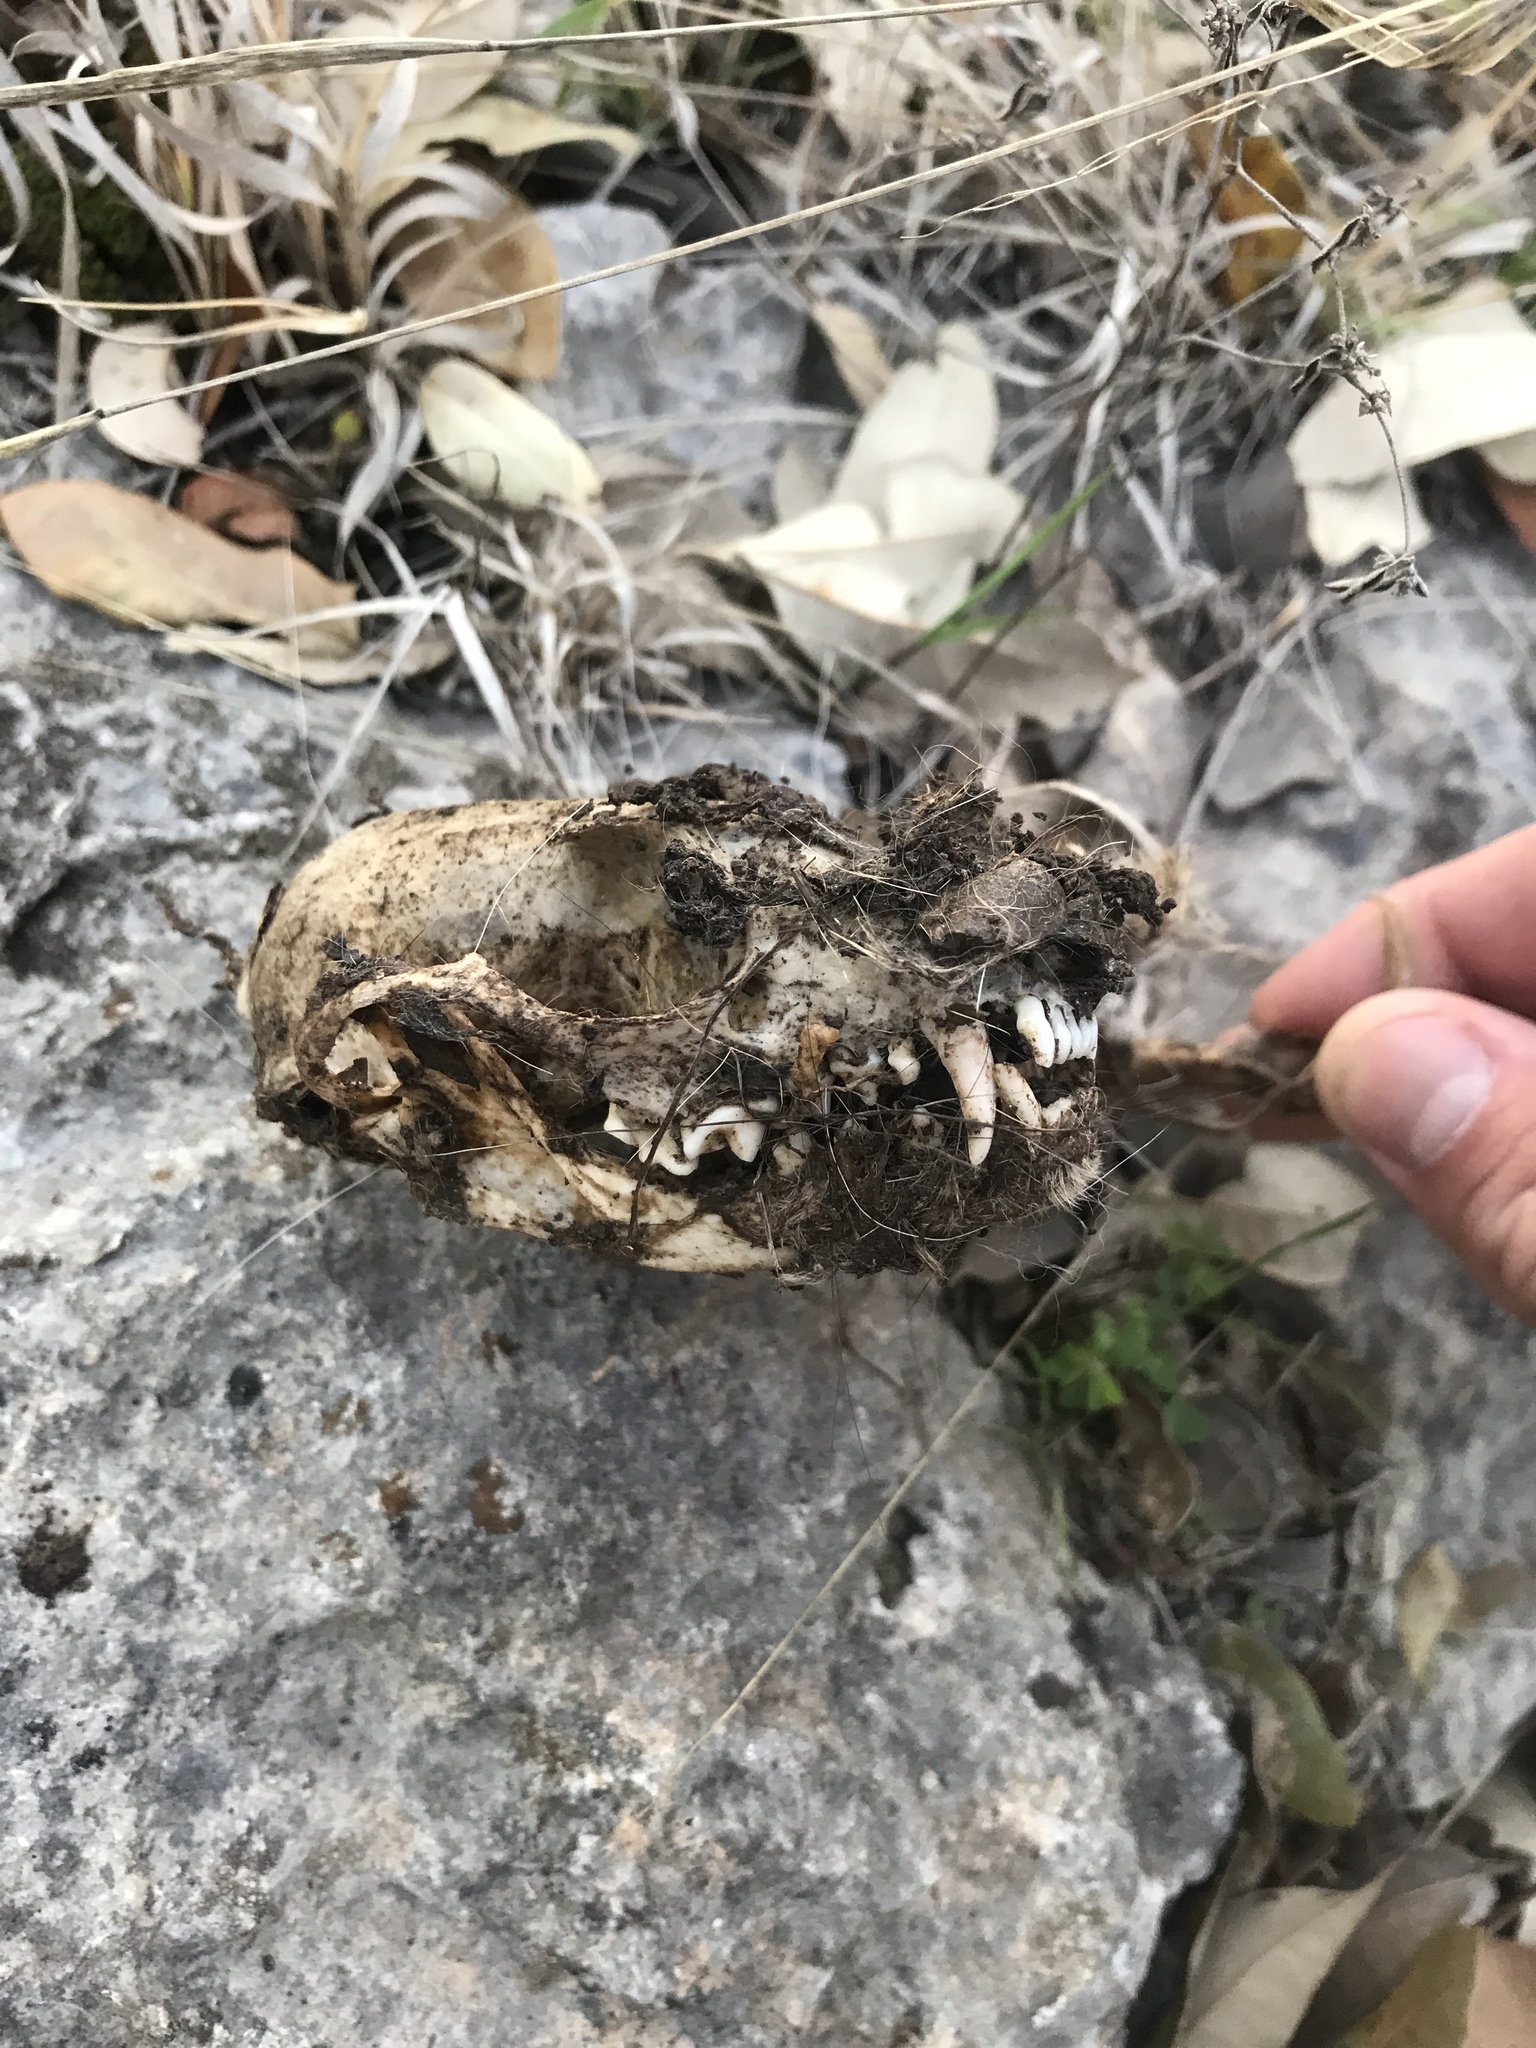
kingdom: Animalia
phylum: Chordata
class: Mammalia
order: Carnivora
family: Procyonidae
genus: Bassariscus
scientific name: Bassariscus astutus
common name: Ringtail
